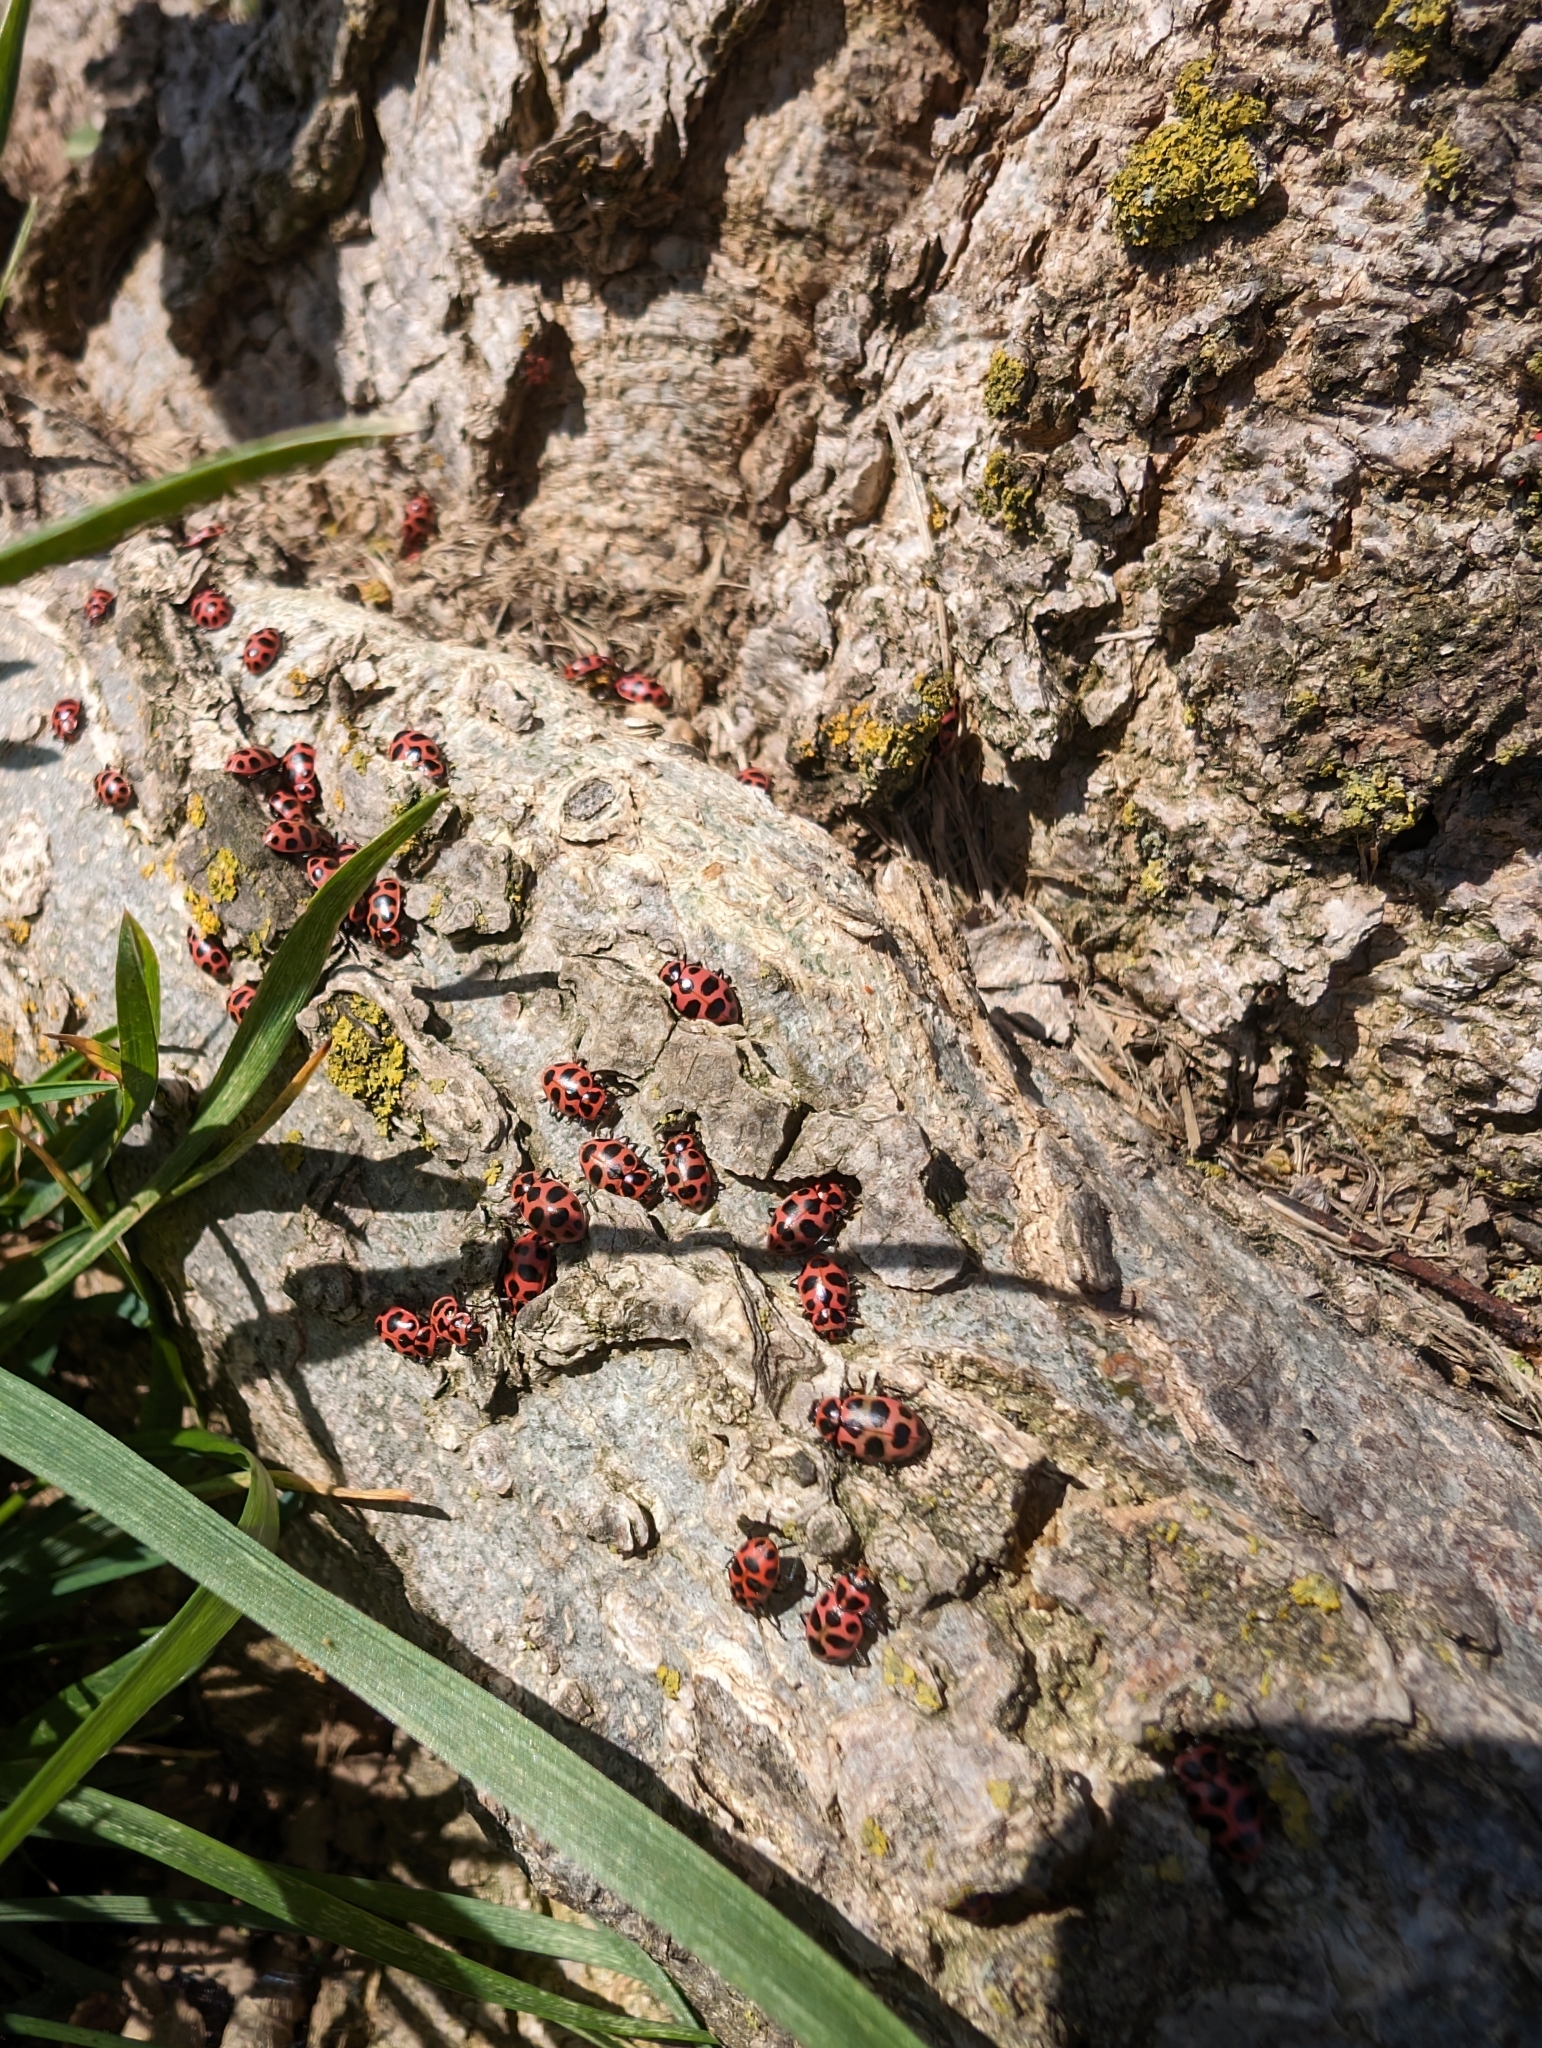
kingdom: Animalia
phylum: Arthropoda
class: Insecta
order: Coleoptera
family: Coccinellidae
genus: Coleomegilla
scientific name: Coleomegilla maculata
